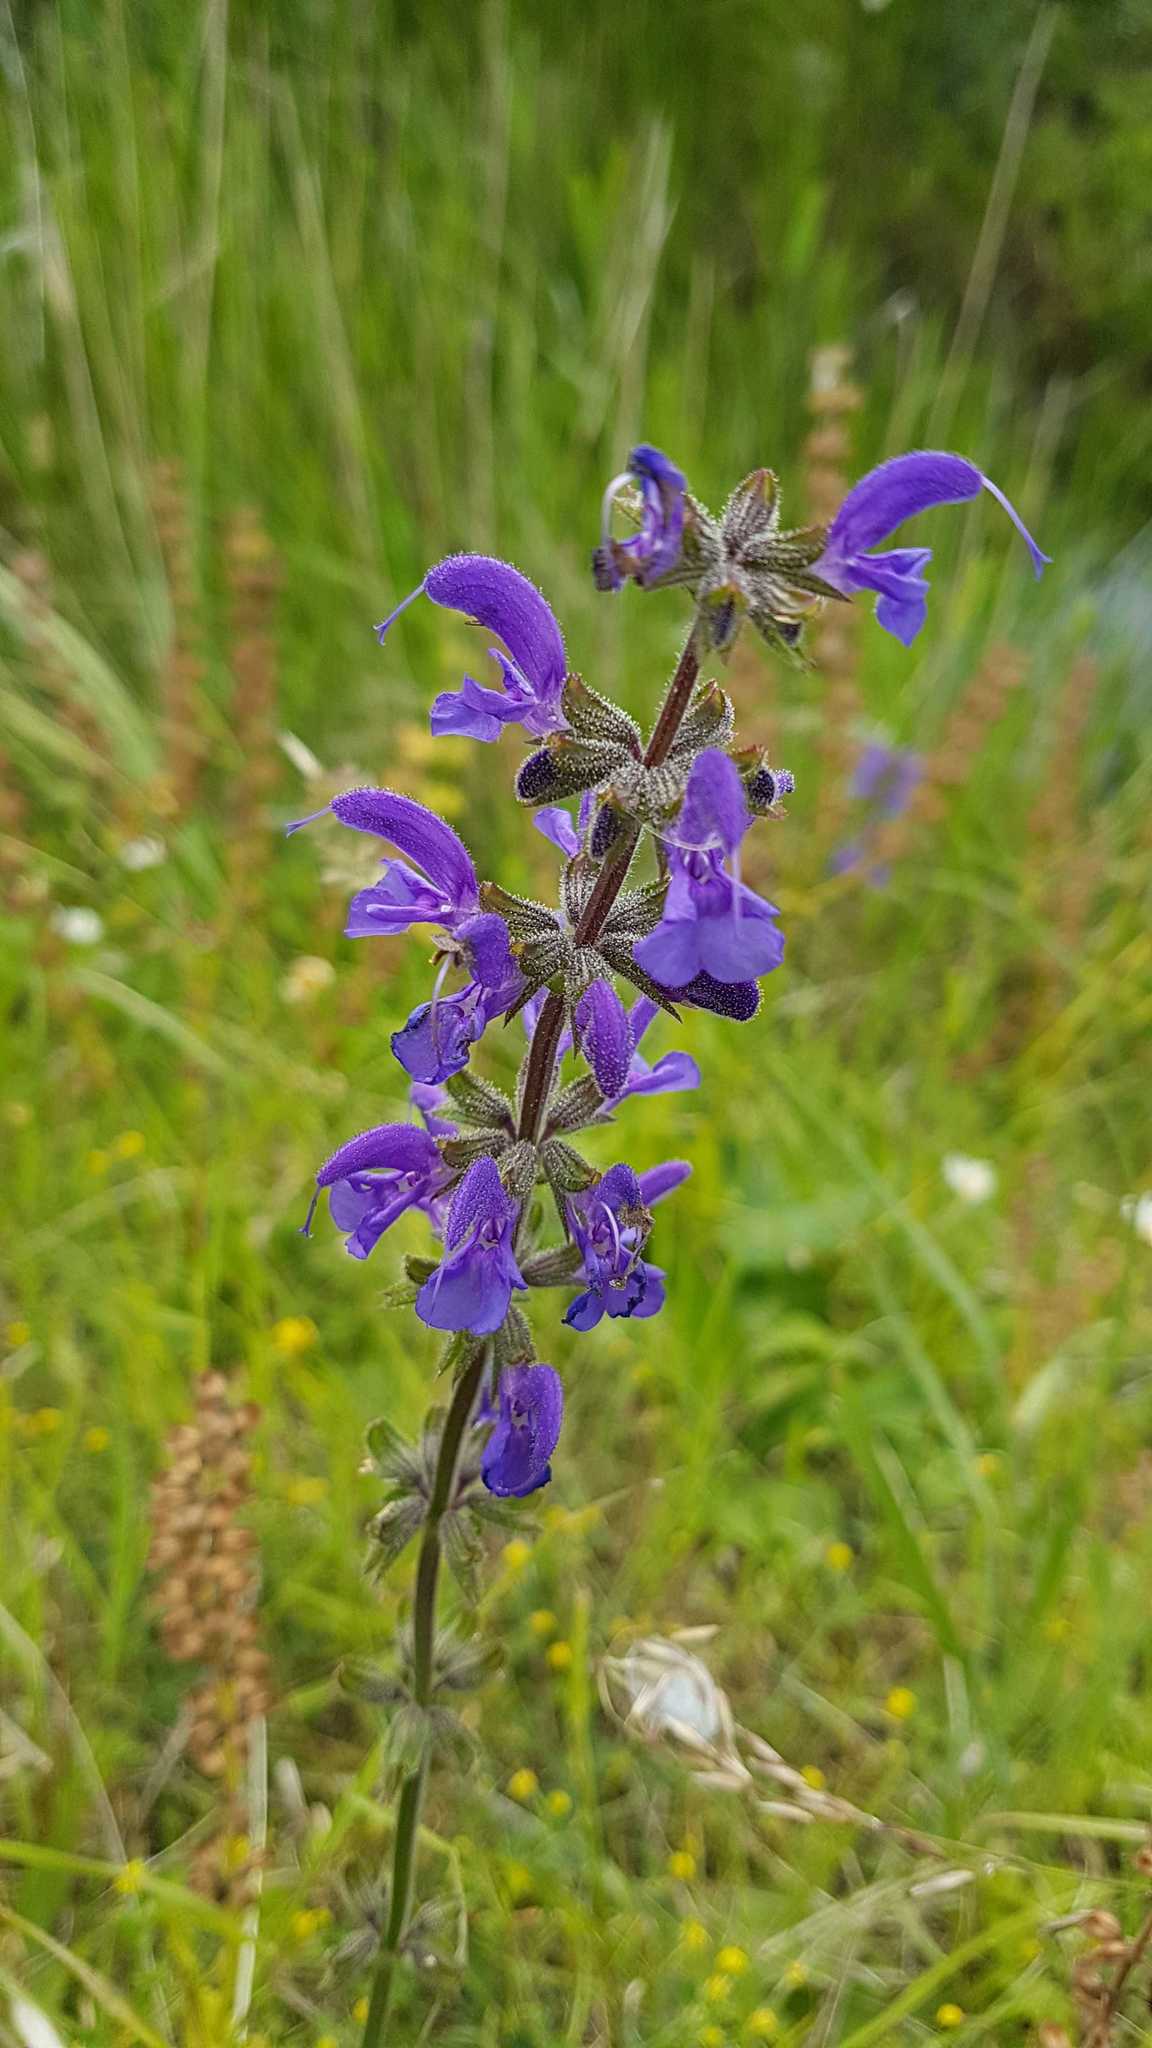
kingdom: Plantae
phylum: Tracheophyta
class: Magnoliopsida
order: Lamiales
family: Lamiaceae
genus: Salvia
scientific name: Salvia pratensis
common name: Meadow sage
